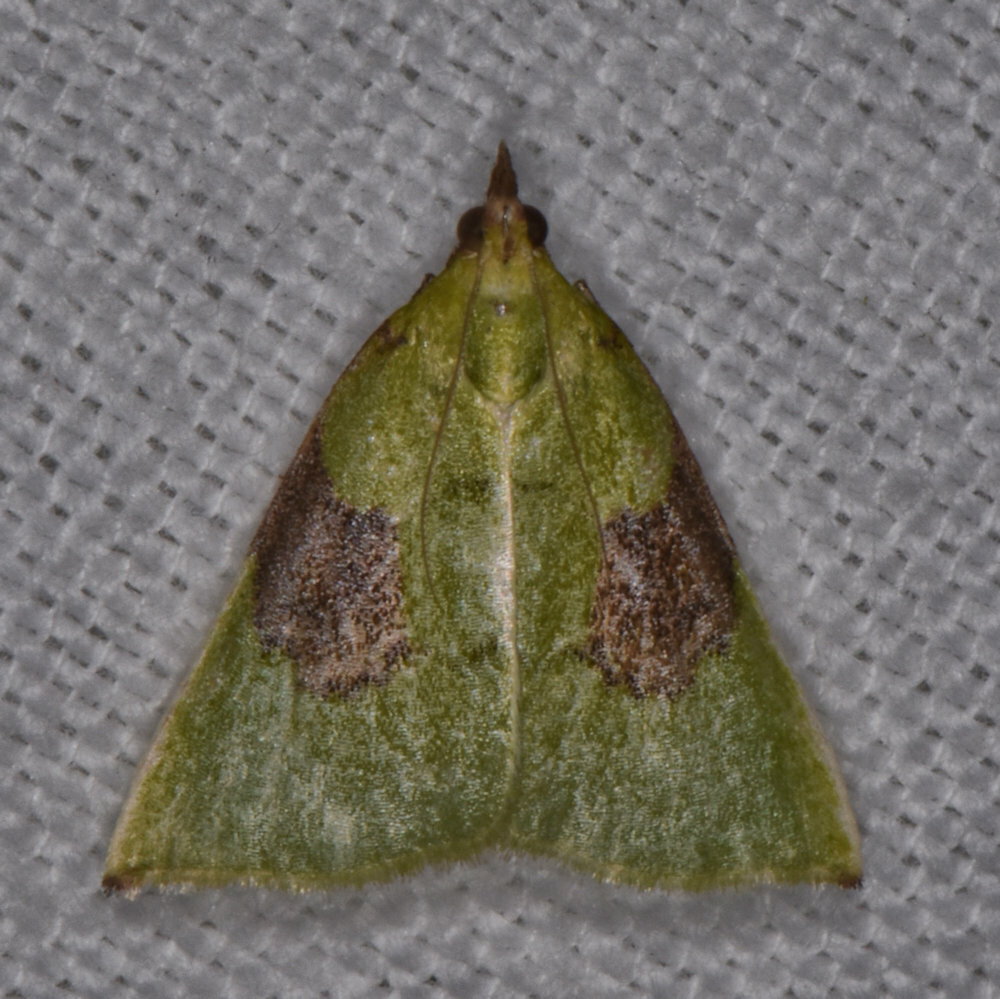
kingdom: Animalia
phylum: Arthropoda
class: Insecta
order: Lepidoptera
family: Pyralidae
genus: Paramacna
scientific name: Paramacna arnea
